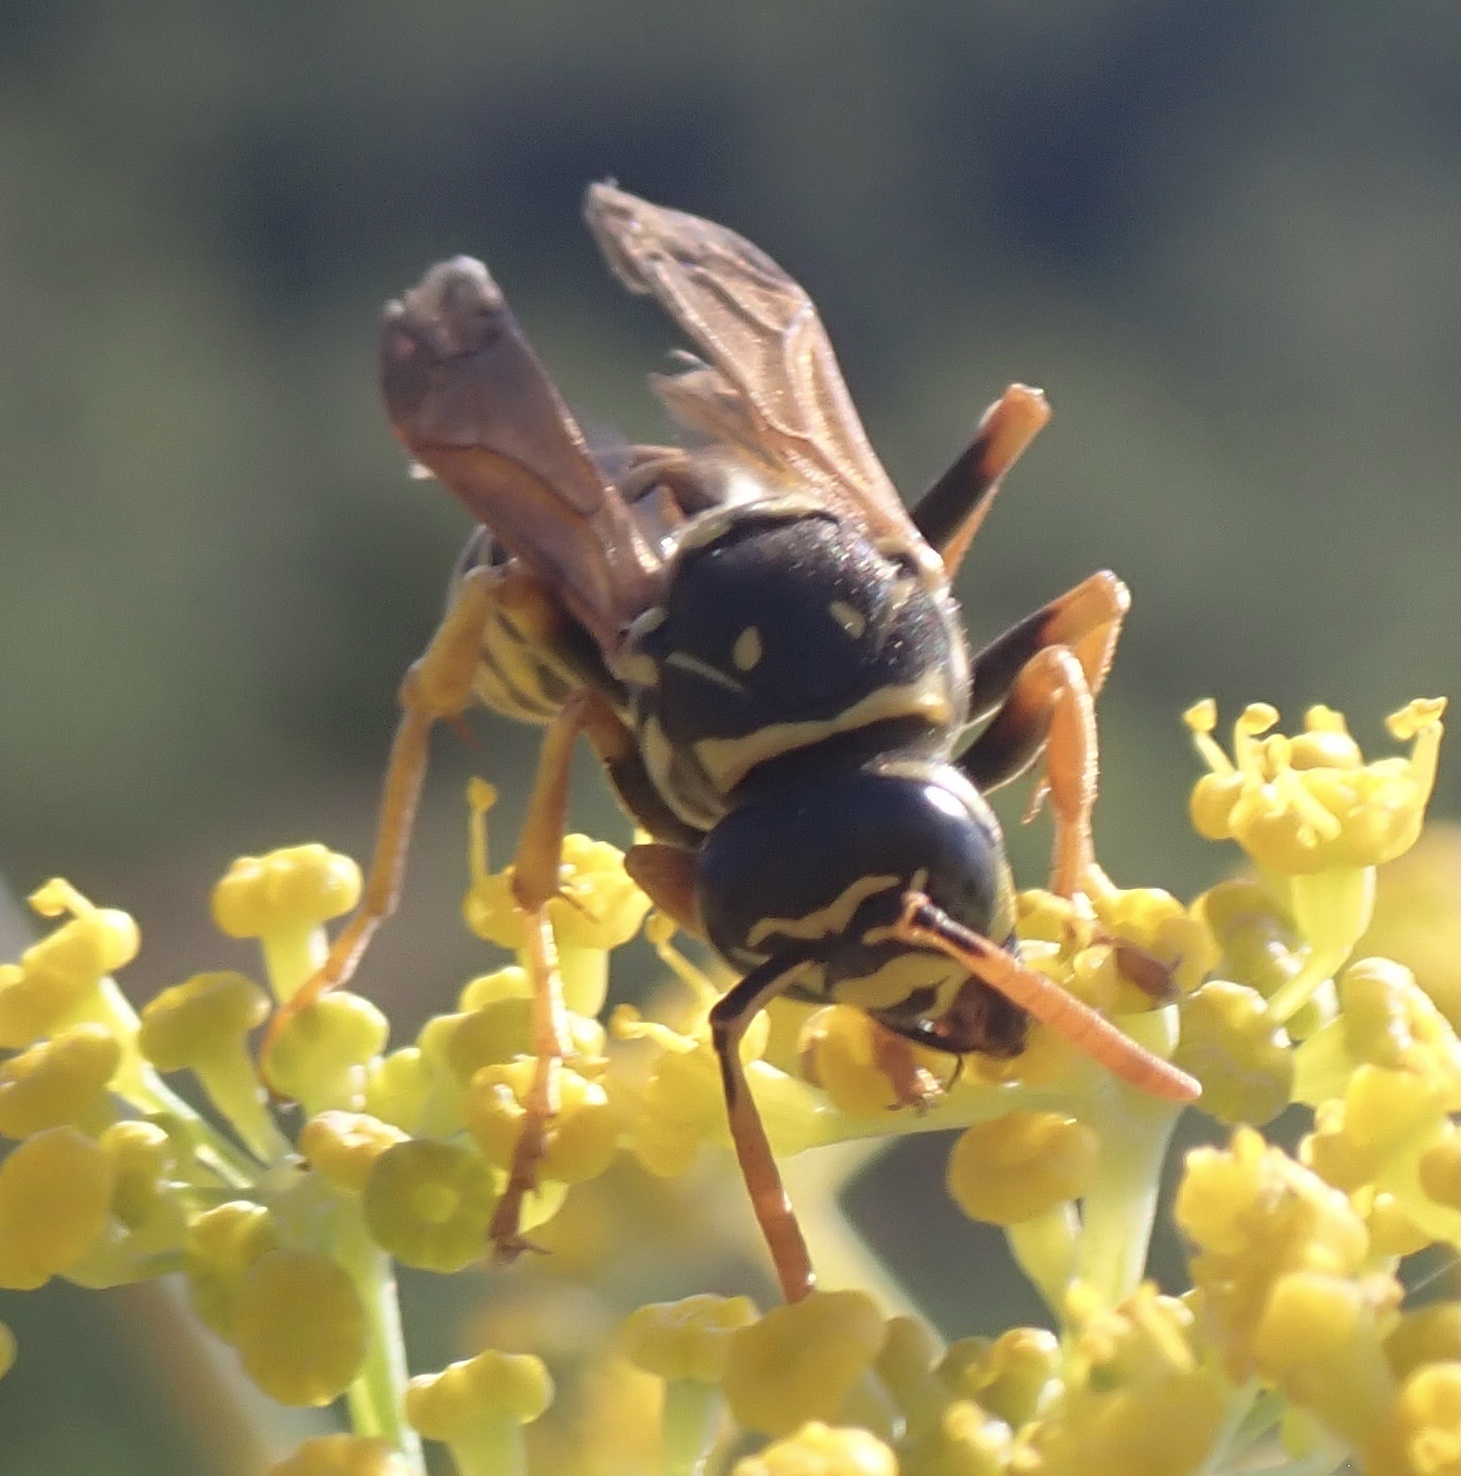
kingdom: Animalia
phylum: Arthropoda
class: Insecta
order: Hymenoptera
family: Eumenidae
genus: Polistes
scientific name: Polistes dominula
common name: Paper wasp
